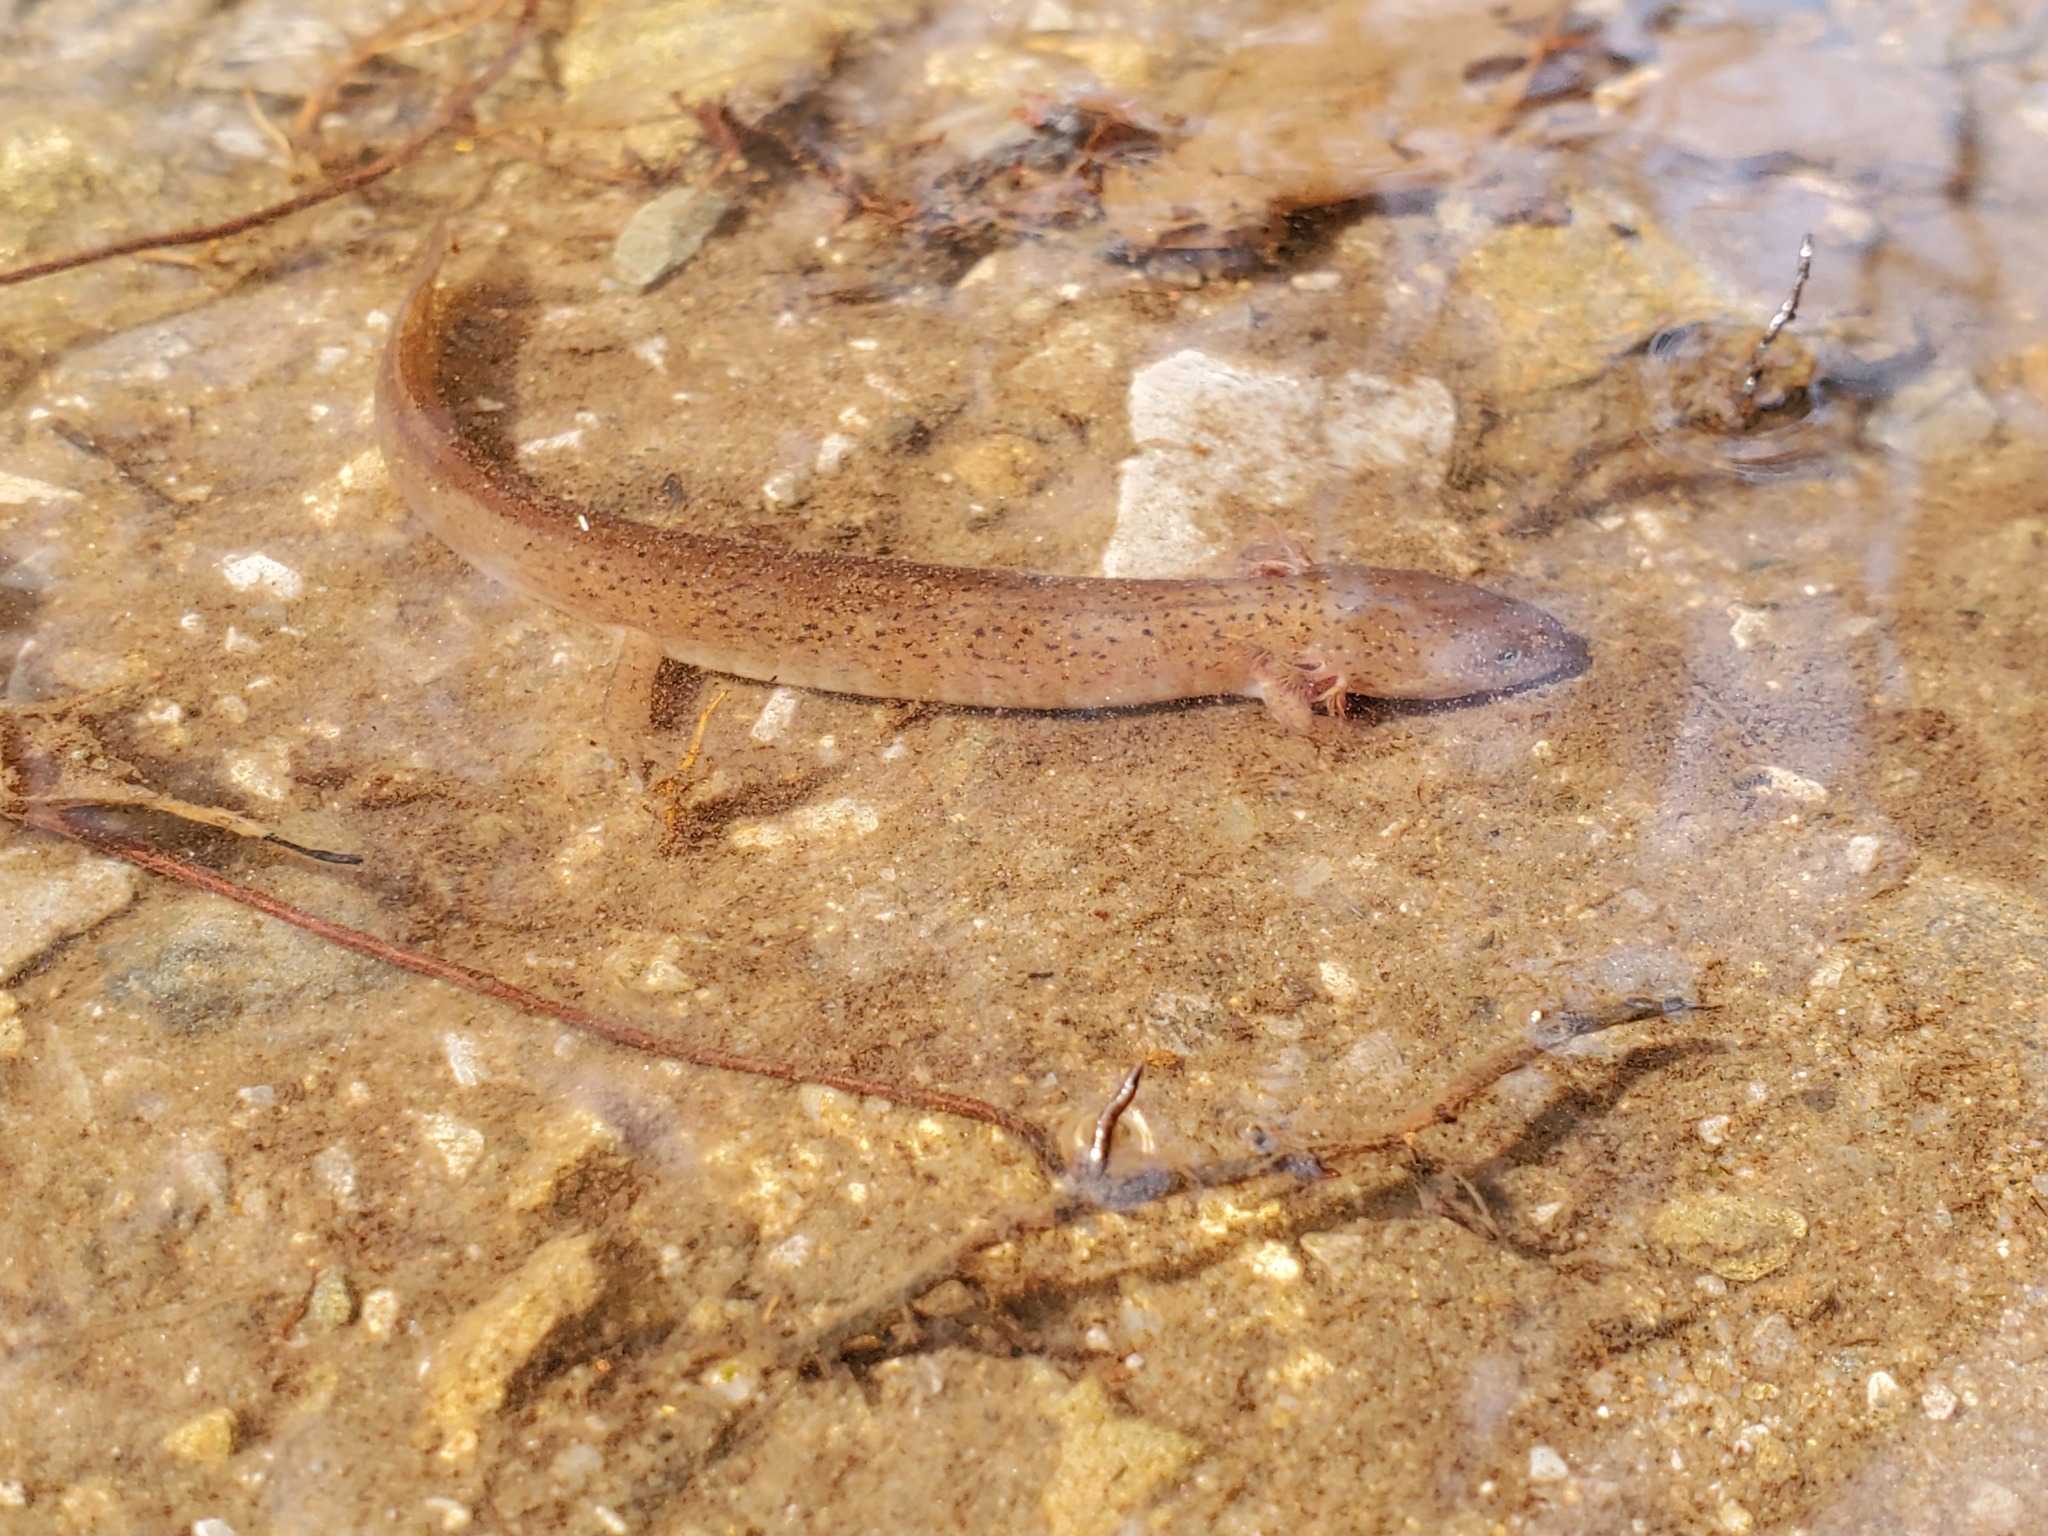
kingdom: Animalia
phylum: Chordata
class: Amphibia
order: Caudata
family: Plethodontidae
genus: Pseudotriton
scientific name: Pseudotriton ruber
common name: Red salamander
